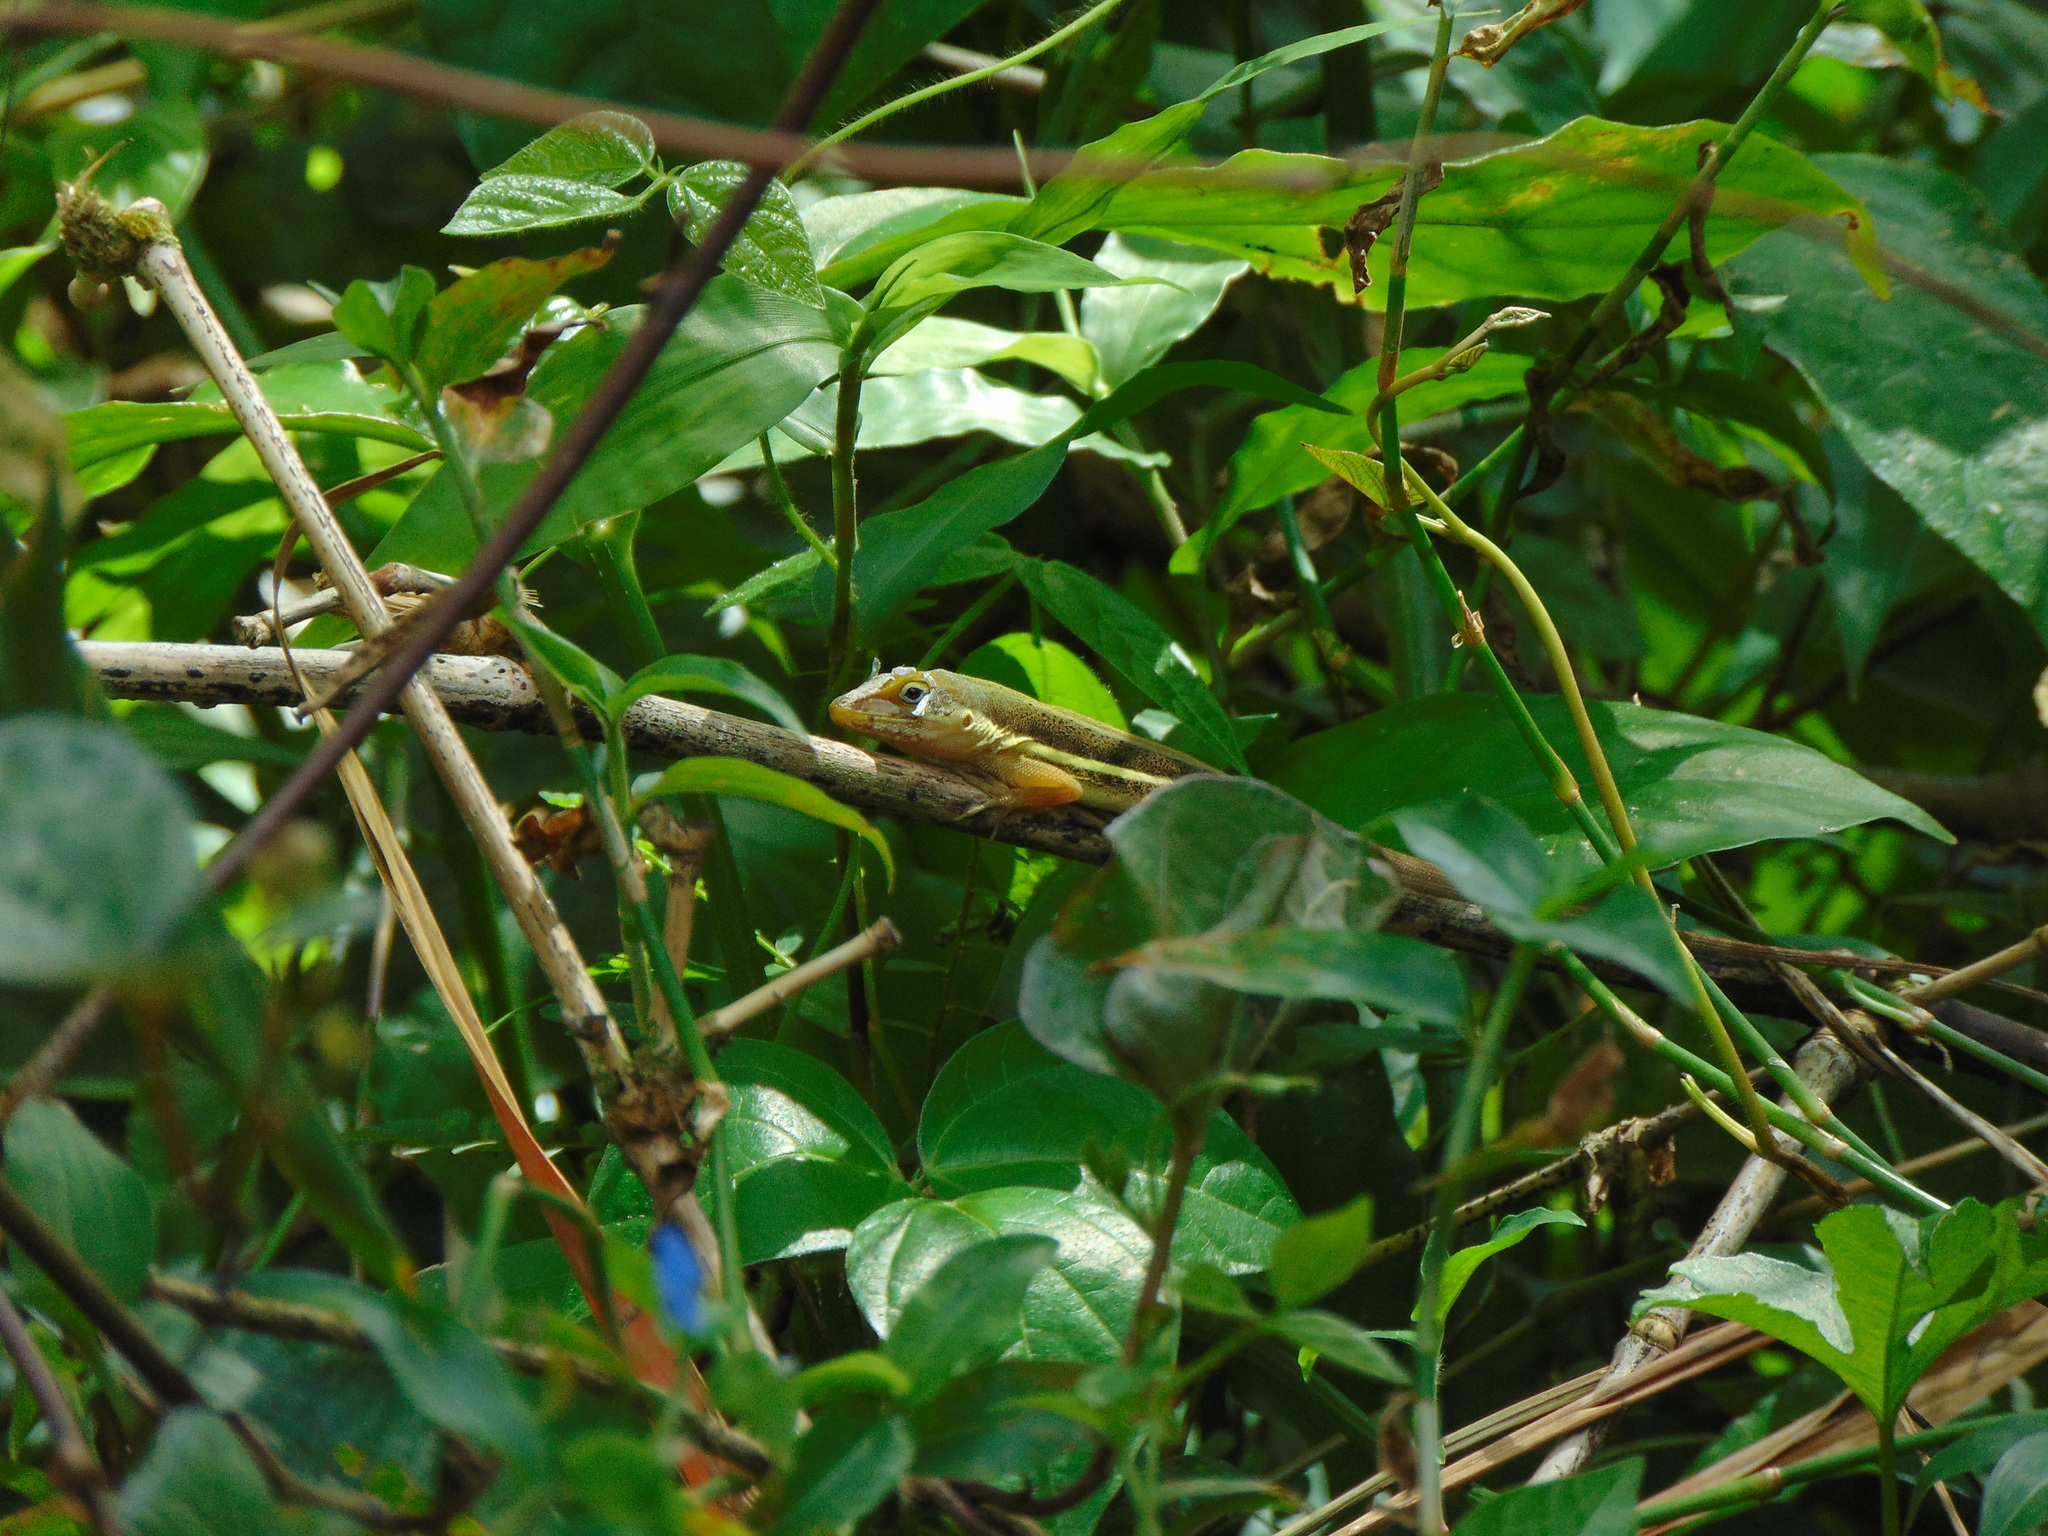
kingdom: Animalia
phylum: Chordata
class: Squamata
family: Dactyloidae
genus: Anolis
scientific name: Anolis krugi
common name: Krug's anole
